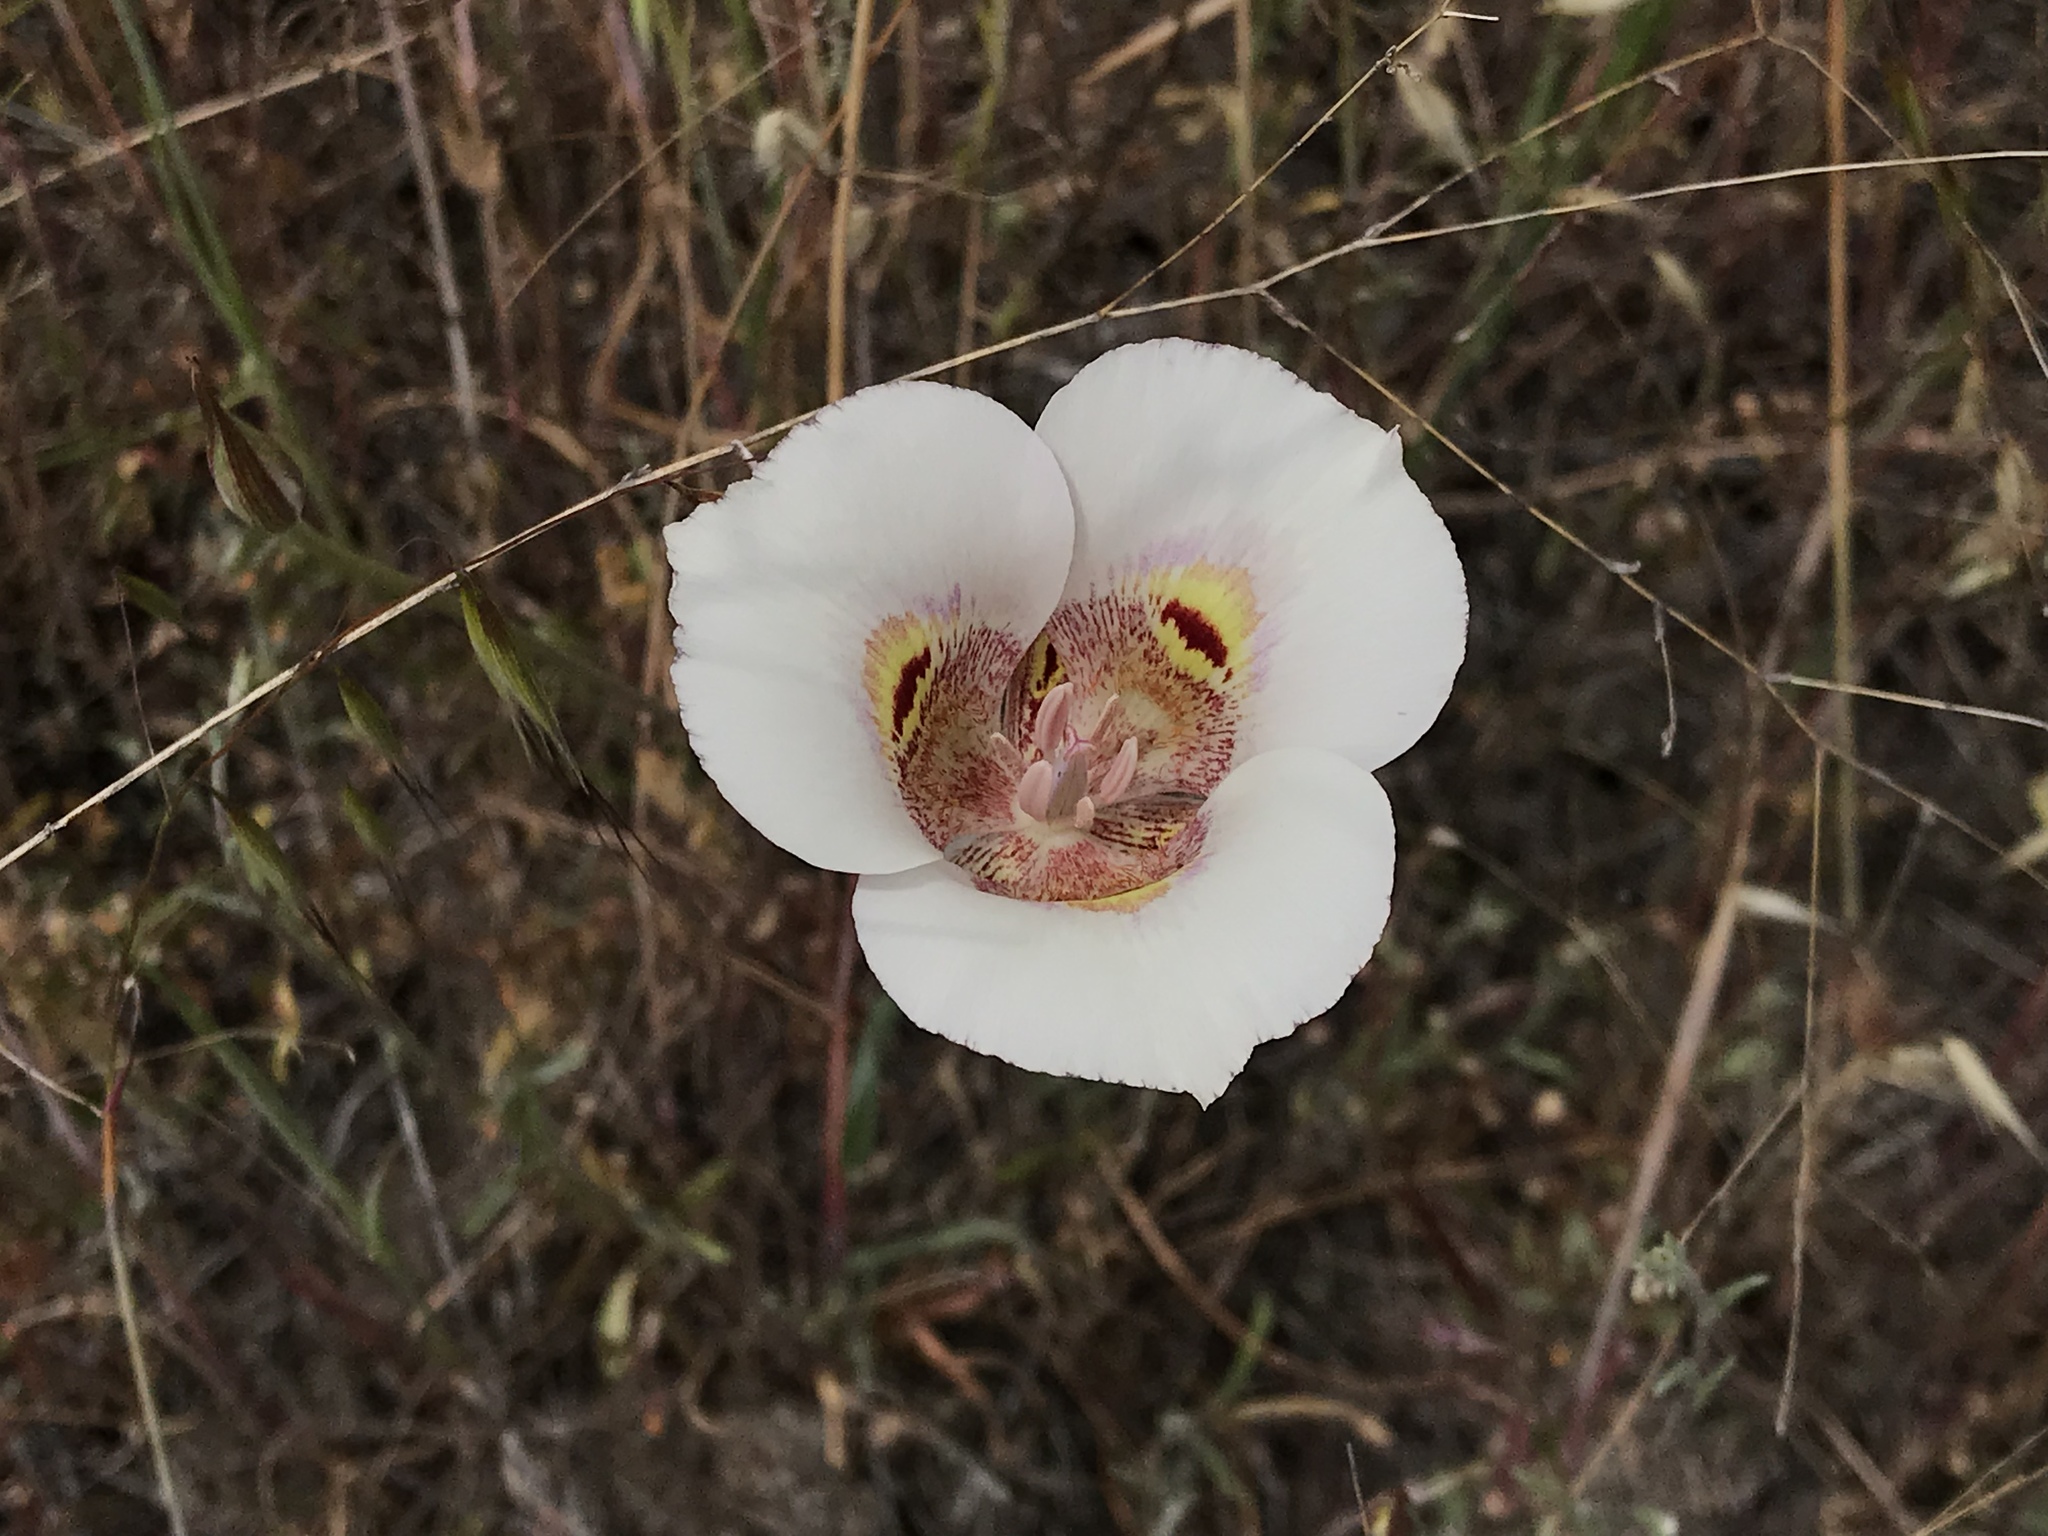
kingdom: Plantae
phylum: Tracheophyta
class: Liliopsida
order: Liliales
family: Liliaceae
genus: Calochortus
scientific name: Calochortus argillosus
